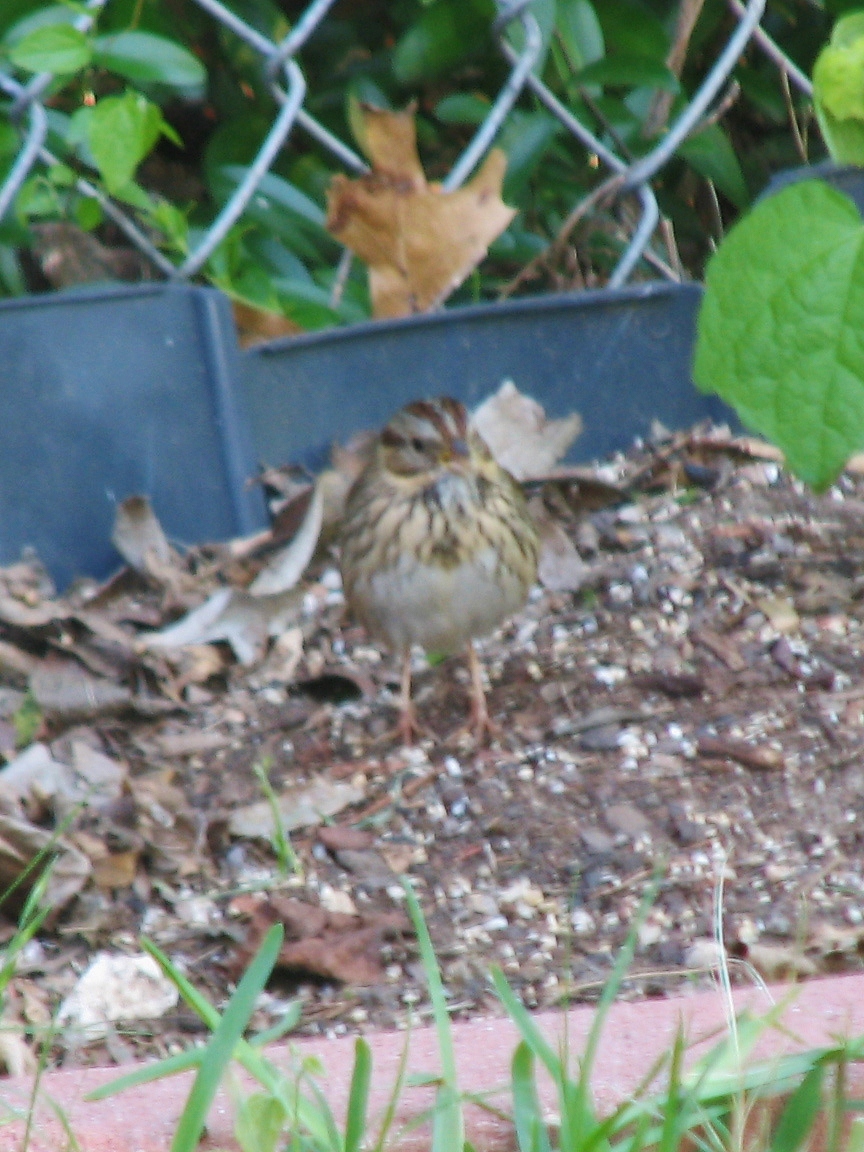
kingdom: Animalia
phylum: Chordata
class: Aves
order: Passeriformes
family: Passerellidae
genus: Melospiza
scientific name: Melospiza lincolnii
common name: Lincoln's sparrow
